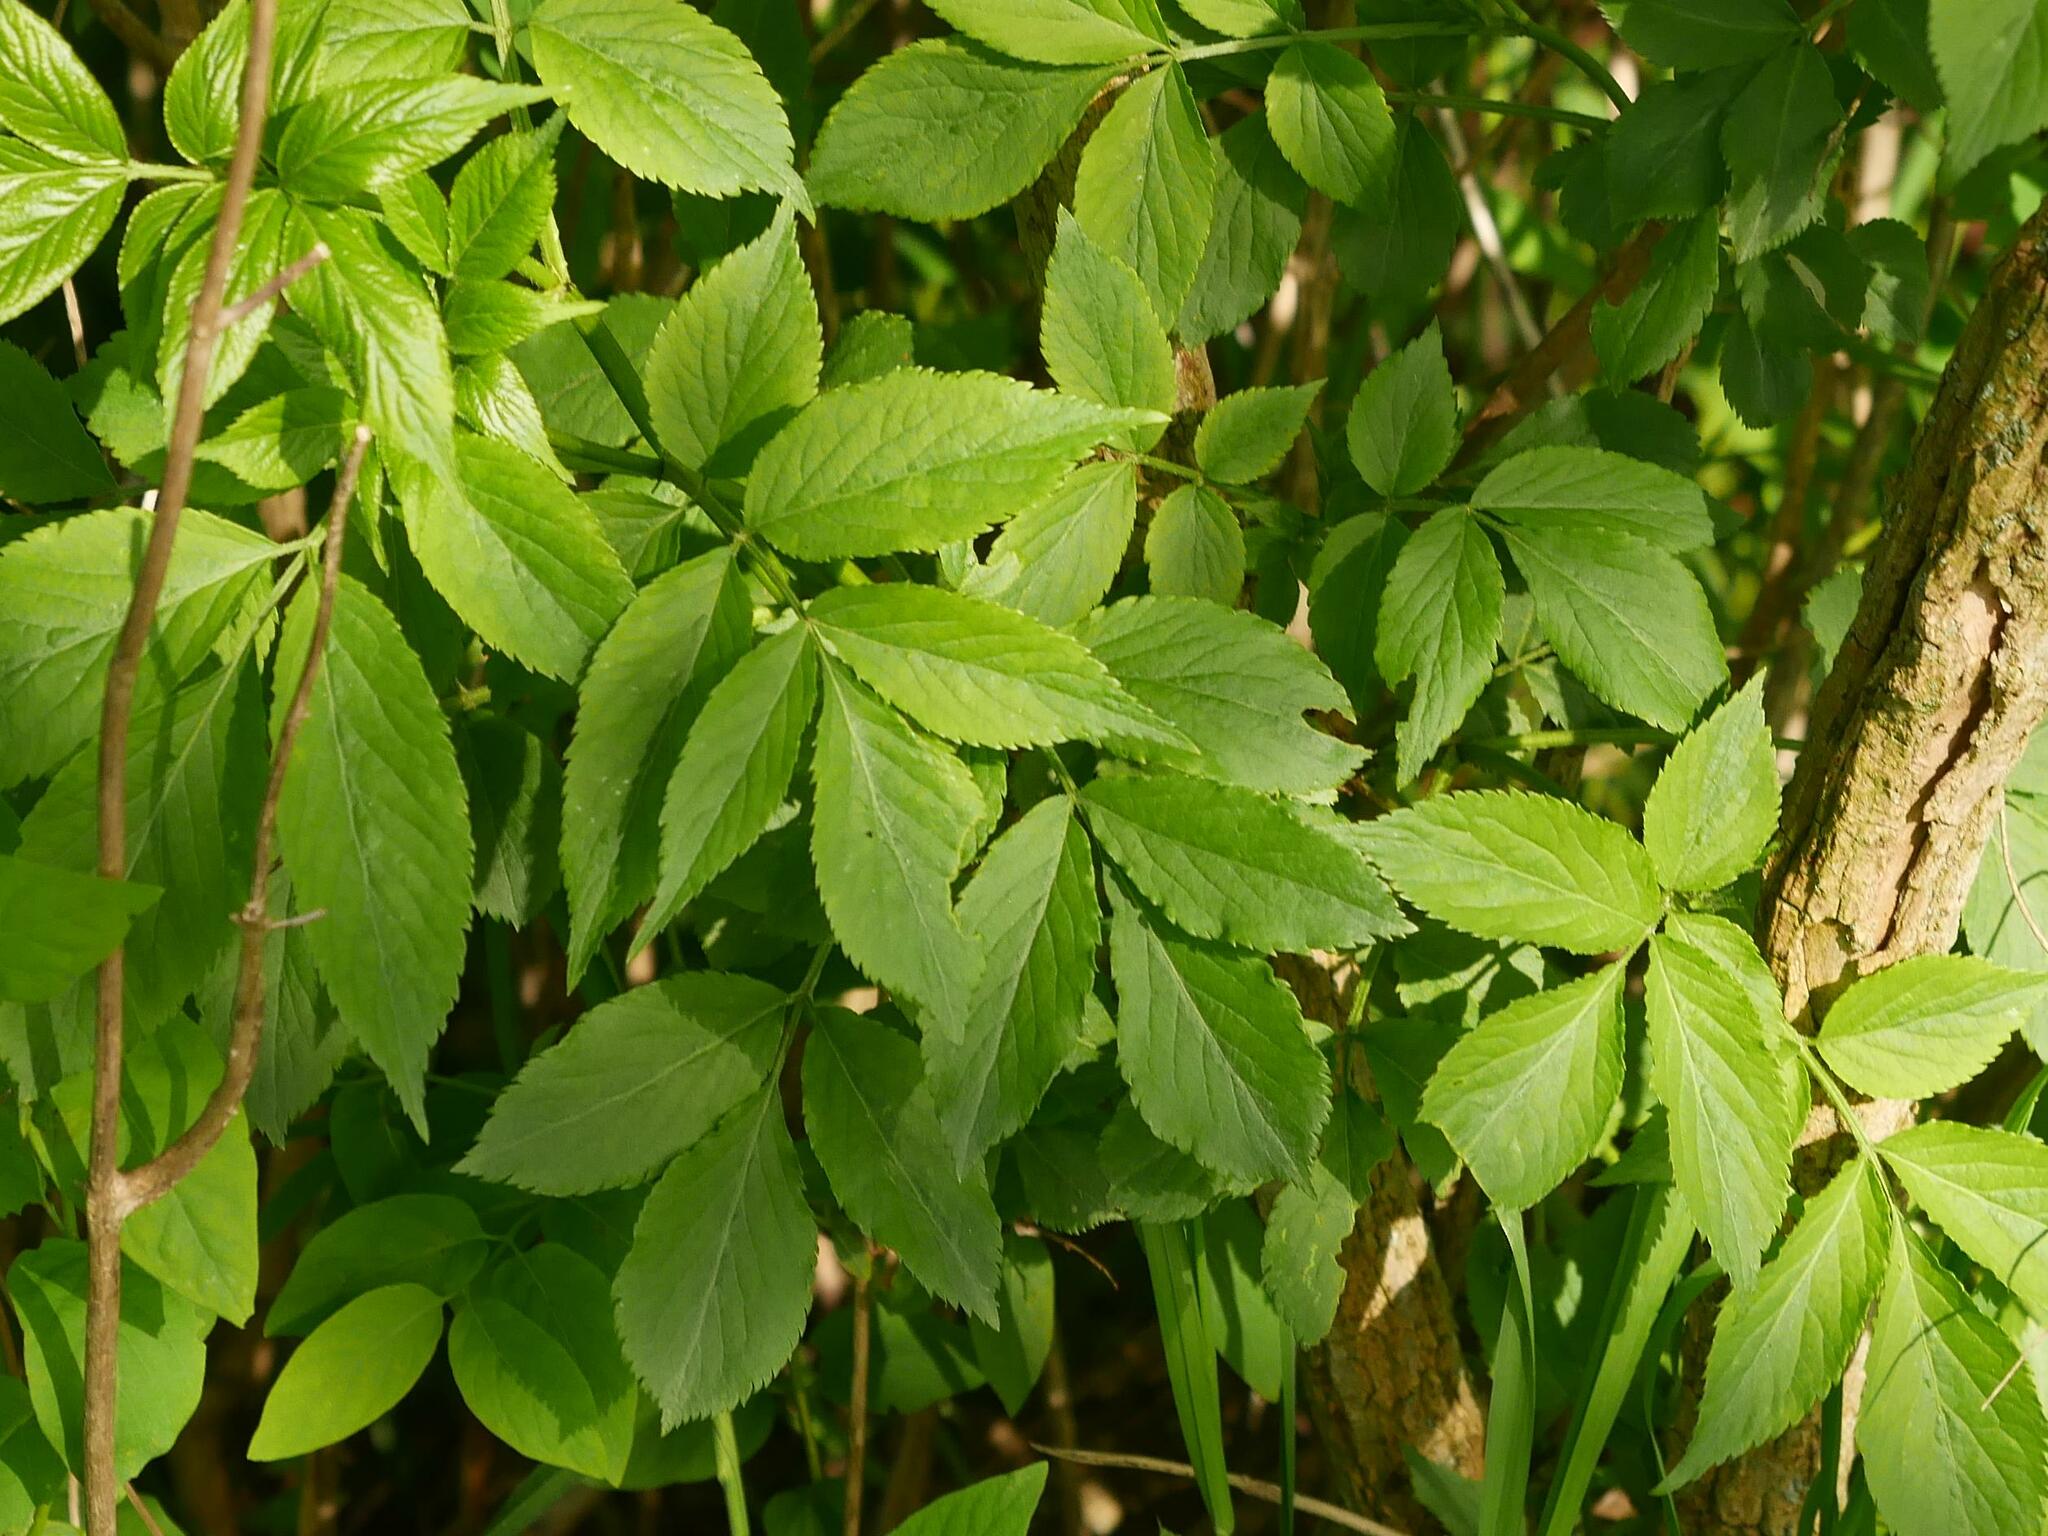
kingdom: Plantae
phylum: Tracheophyta
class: Magnoliopsida
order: Dipsacales
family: Viburnaceae
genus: Sambucus
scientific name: Sambucus nigra
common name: Elder
